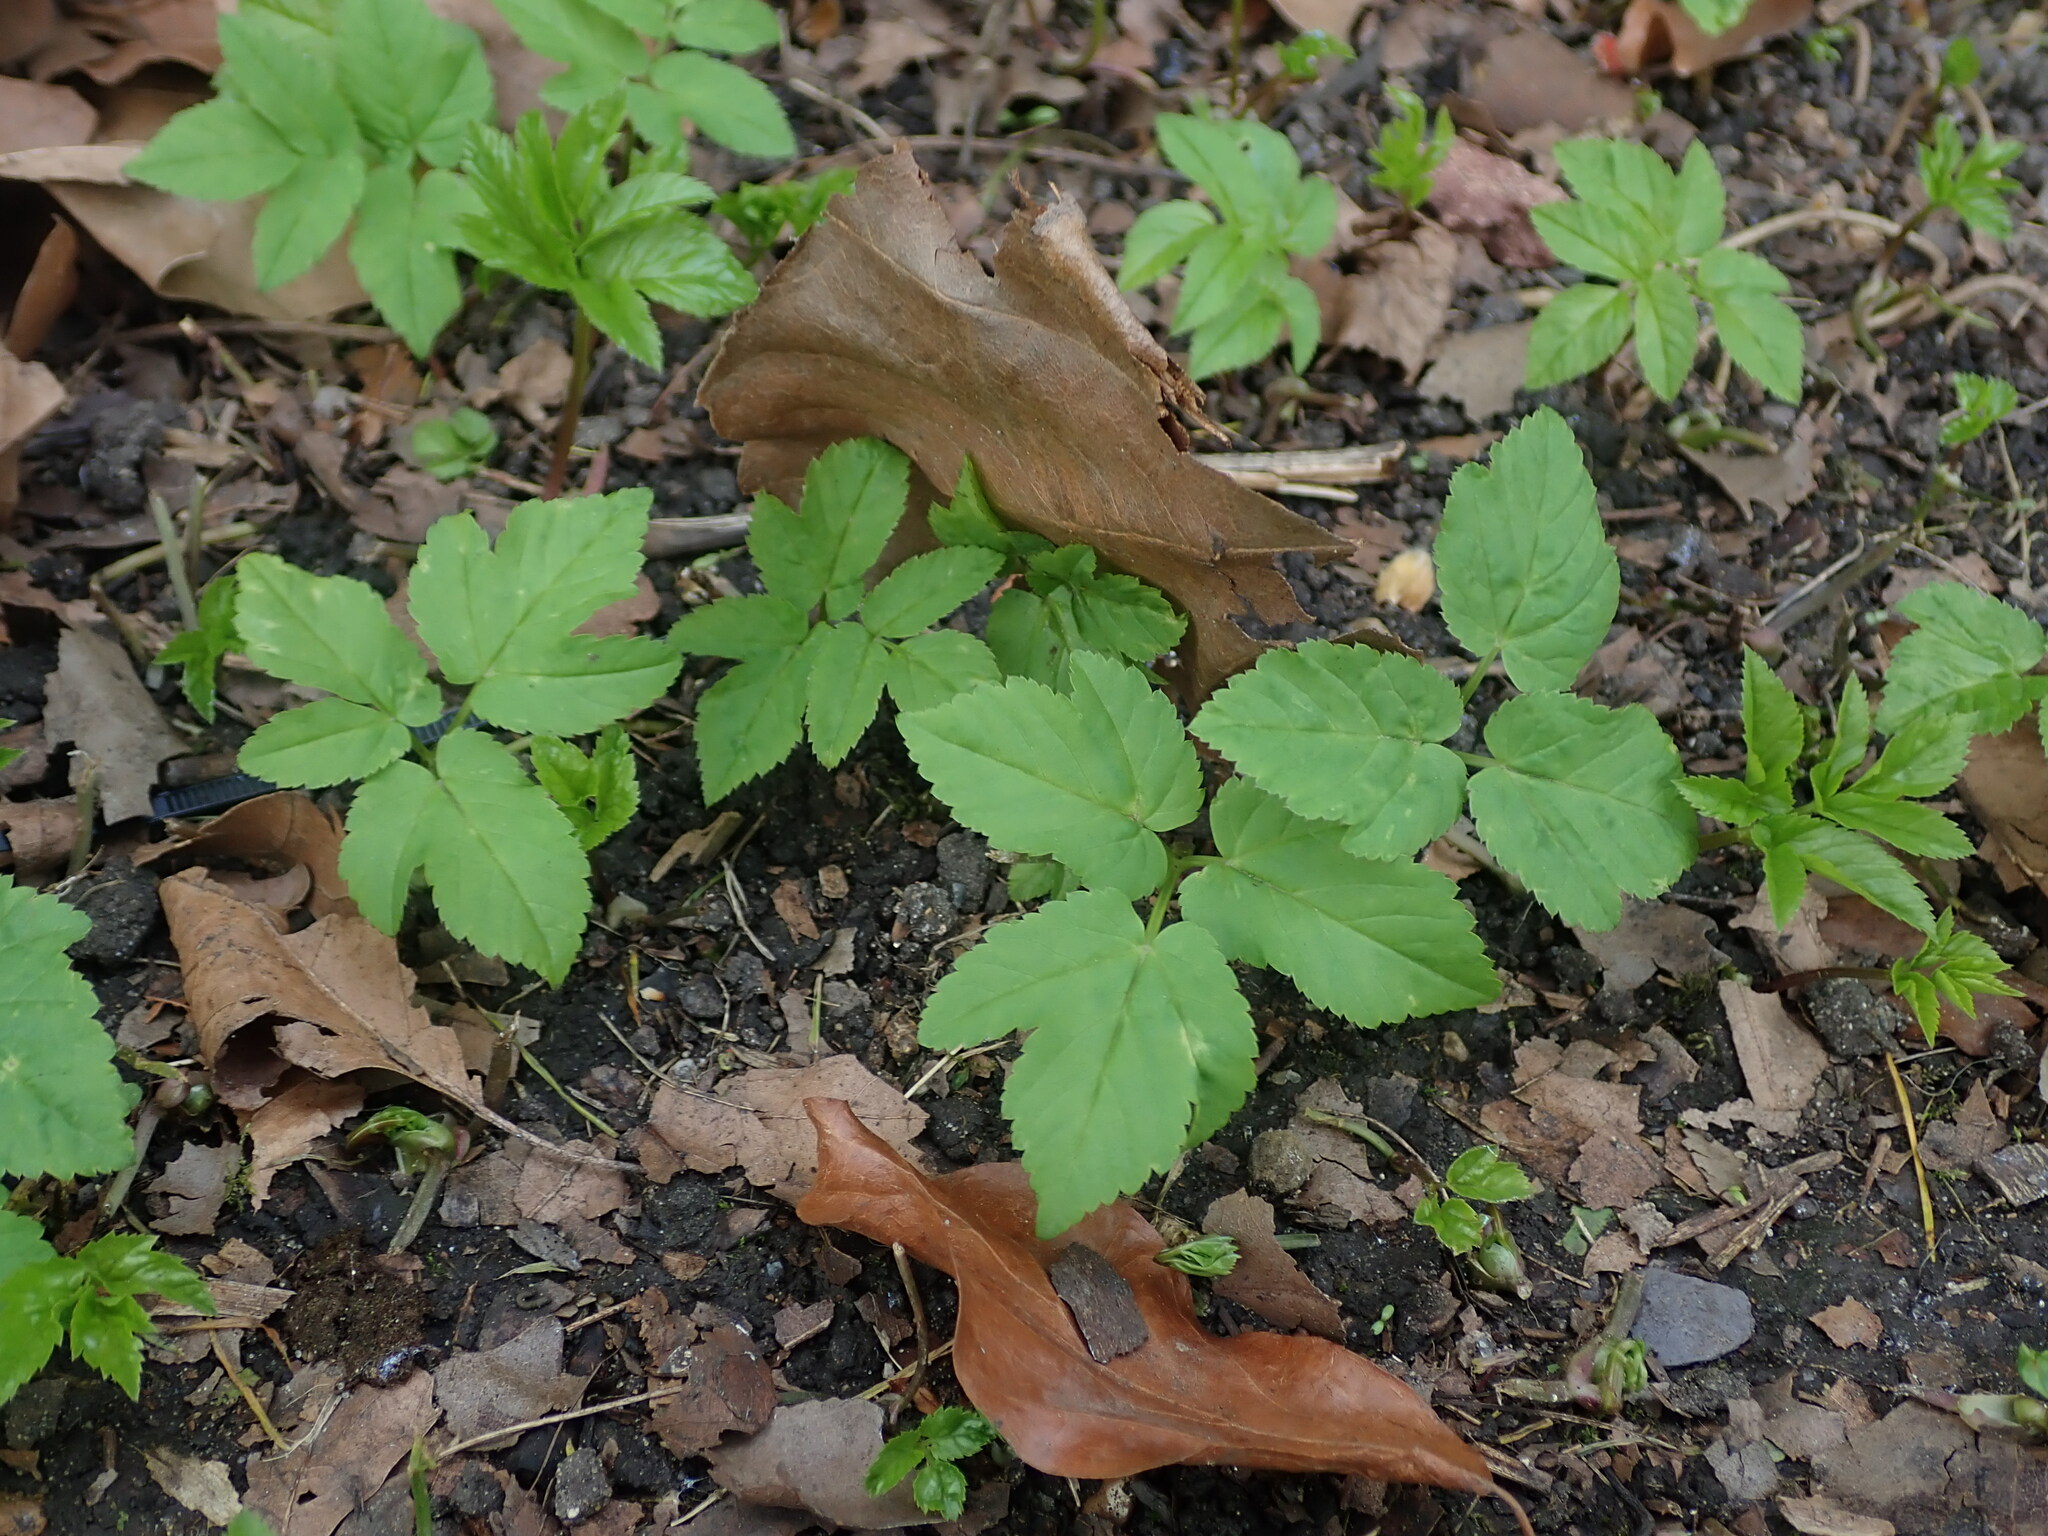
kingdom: Plantae
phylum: Tracheophyta
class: Magnoliopsida
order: Apiales
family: Apiaceae
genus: Aegopodium
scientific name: Aegopodium podagraria
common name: Ground-elder
